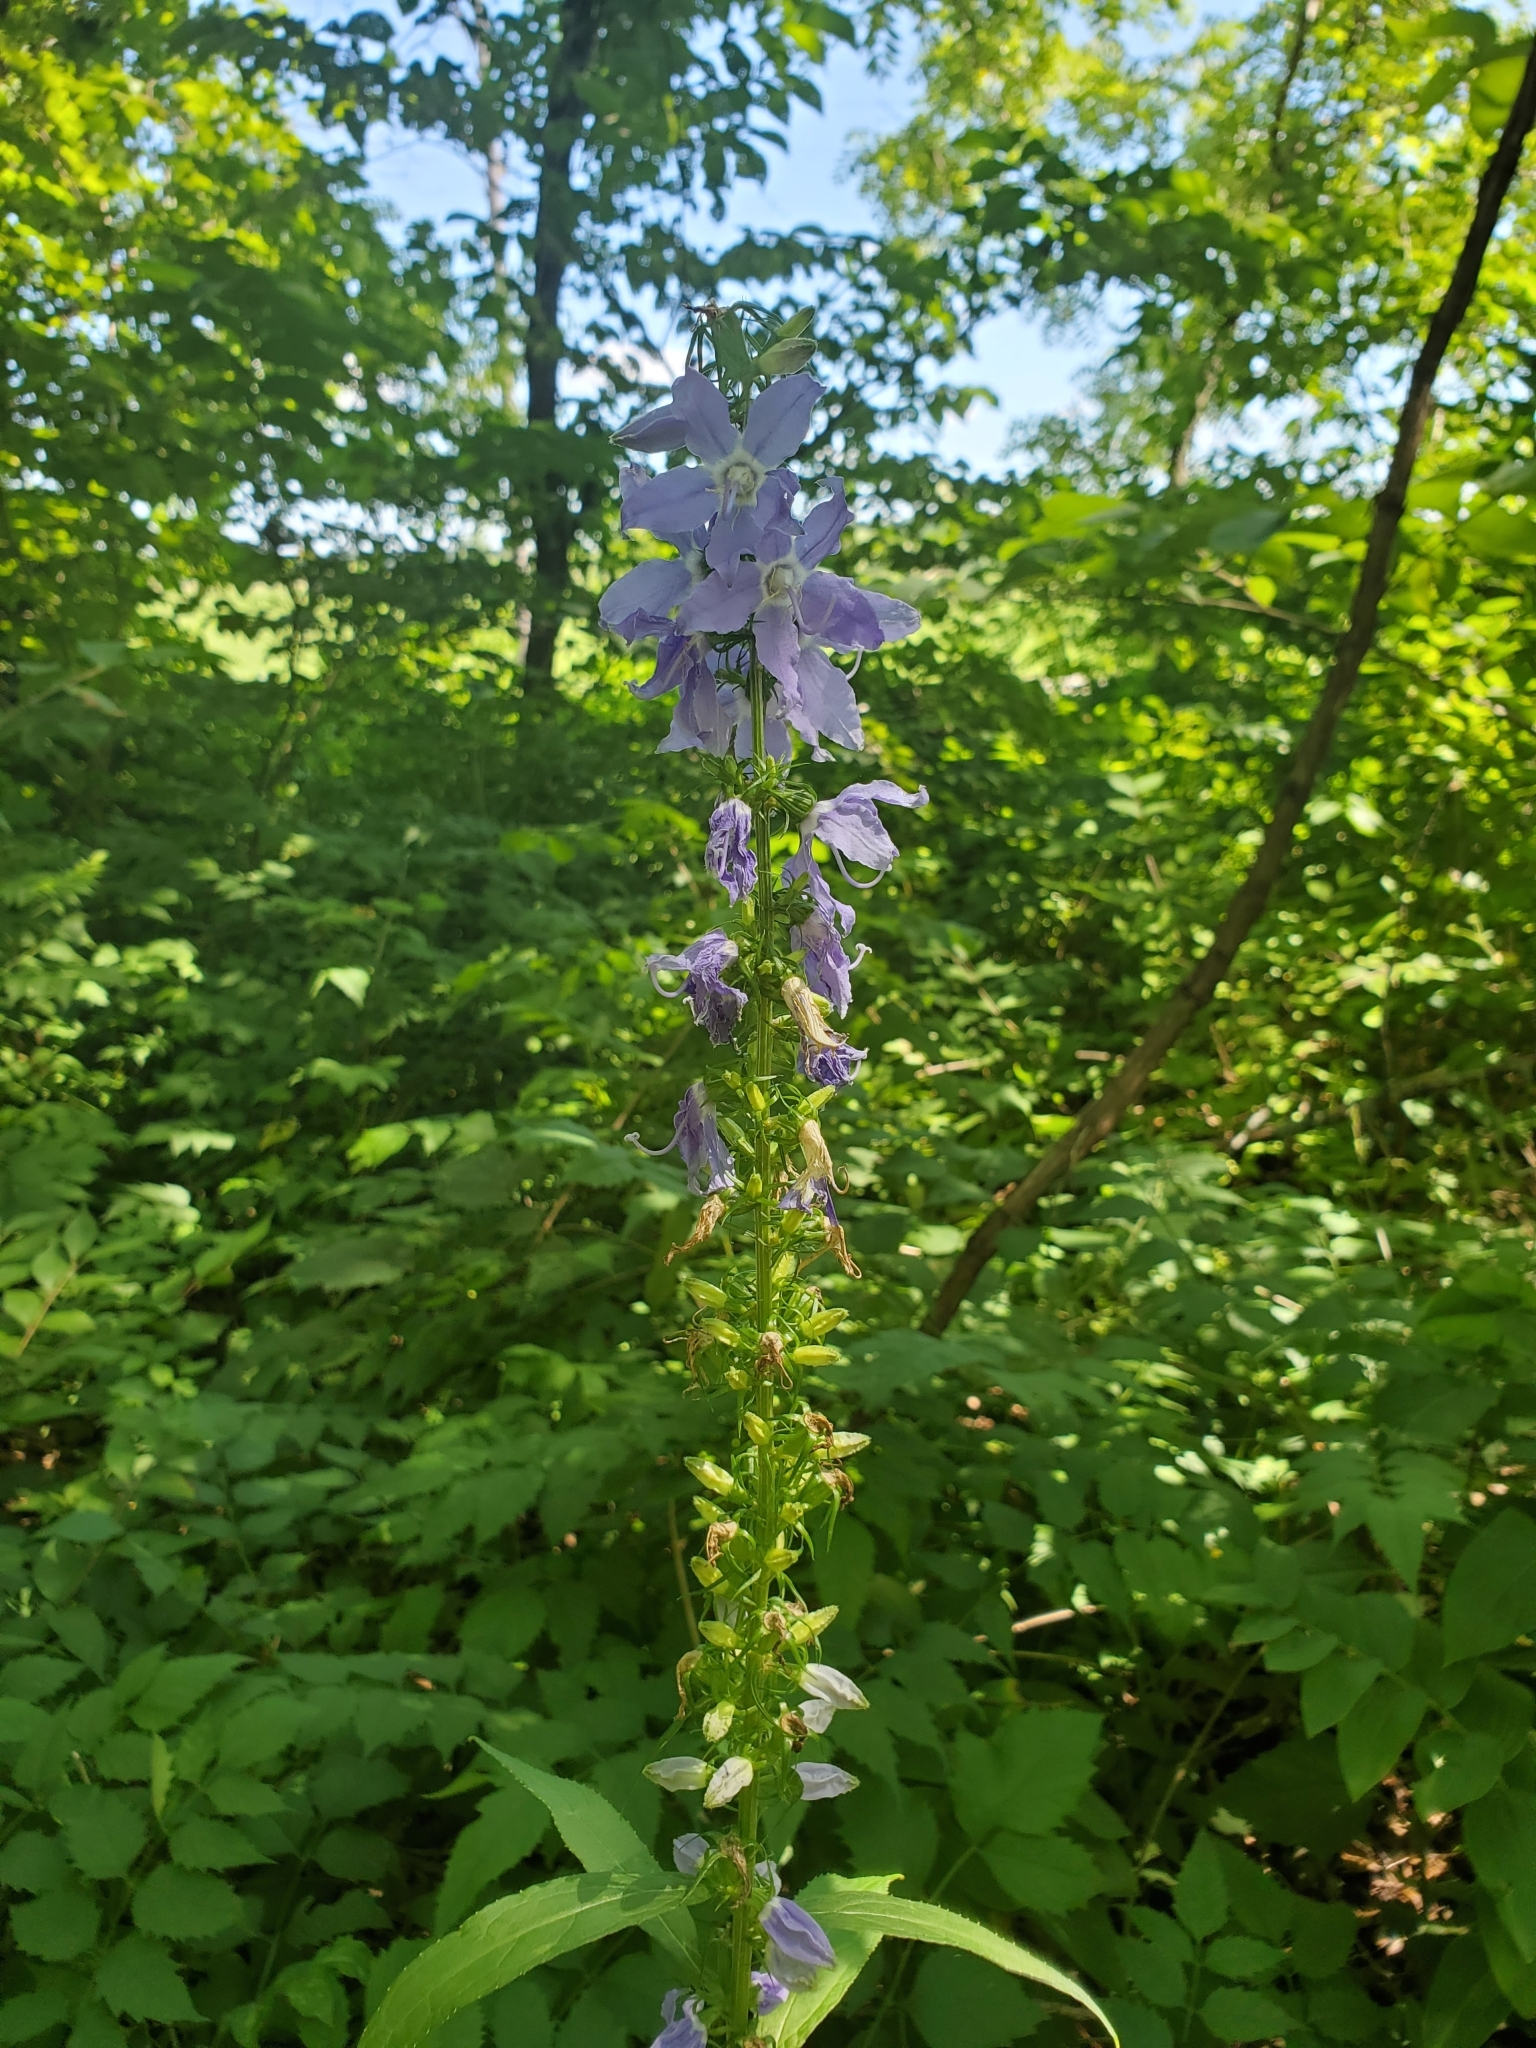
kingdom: Plantae
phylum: Tracheophyta
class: Magnoliopsida
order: Asterales
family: Campanulaceae
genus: Campanulastrum
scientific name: Campanulastrum americanum
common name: American bellflower
